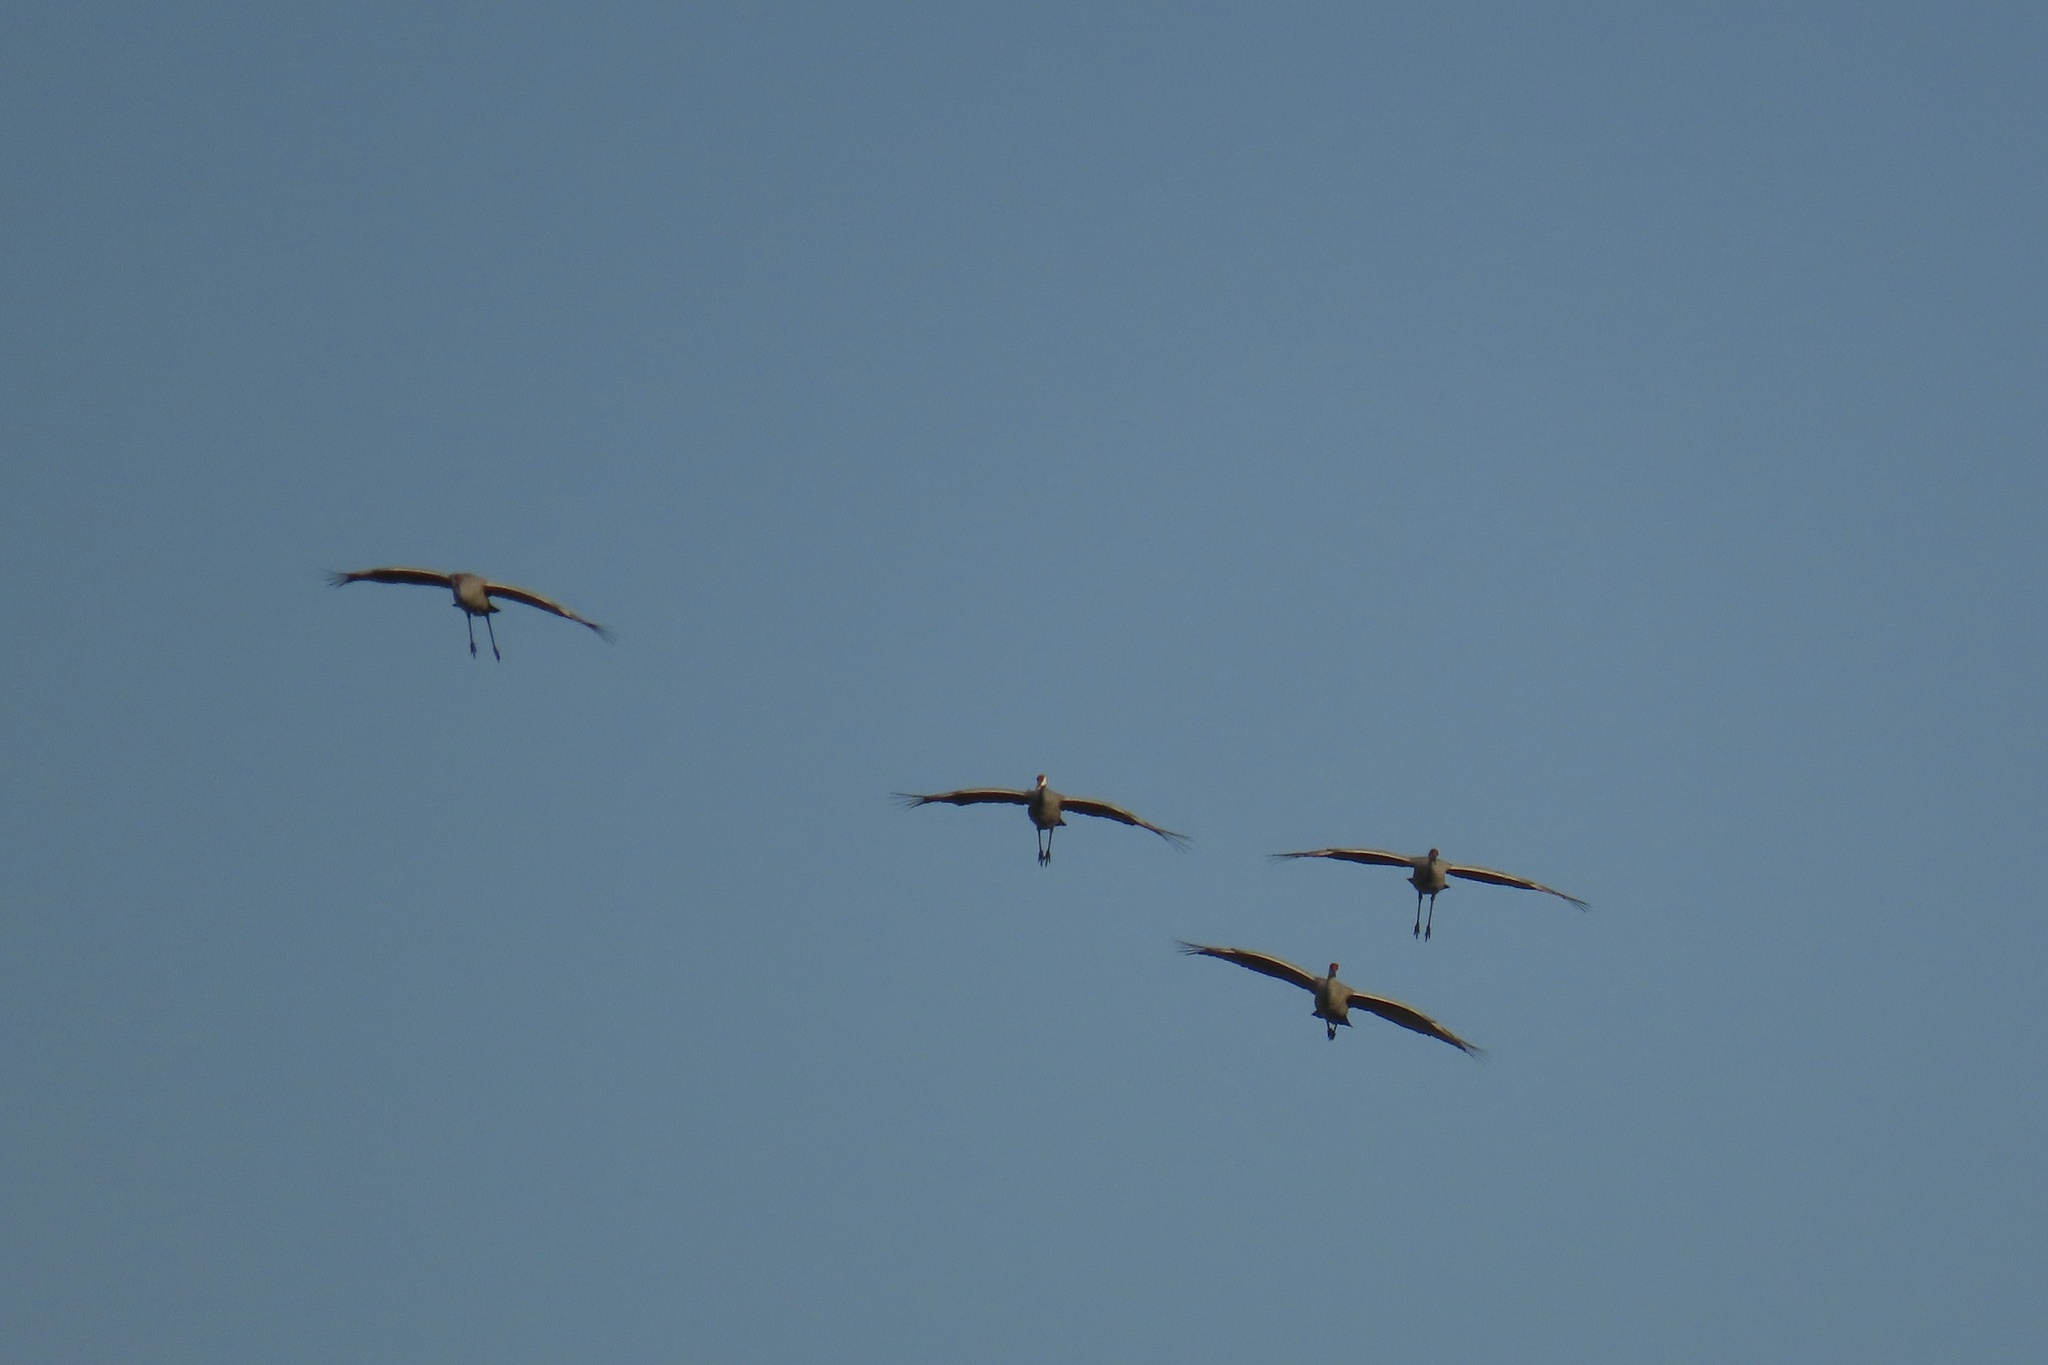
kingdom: Animalia
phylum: Chordata
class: Aves
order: Gruiformes
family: Gruidae
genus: Grus
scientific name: Grus canadensis
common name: Sandhill crane
